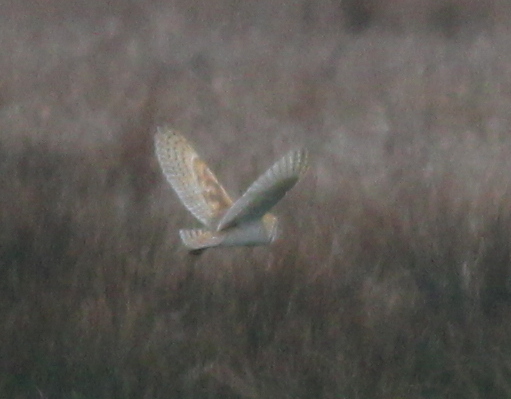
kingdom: Animalia
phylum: Chordata
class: Aves
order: Strigiformes
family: Tytonidae
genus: Tyto
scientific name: Tyto alba
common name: Barn owl
